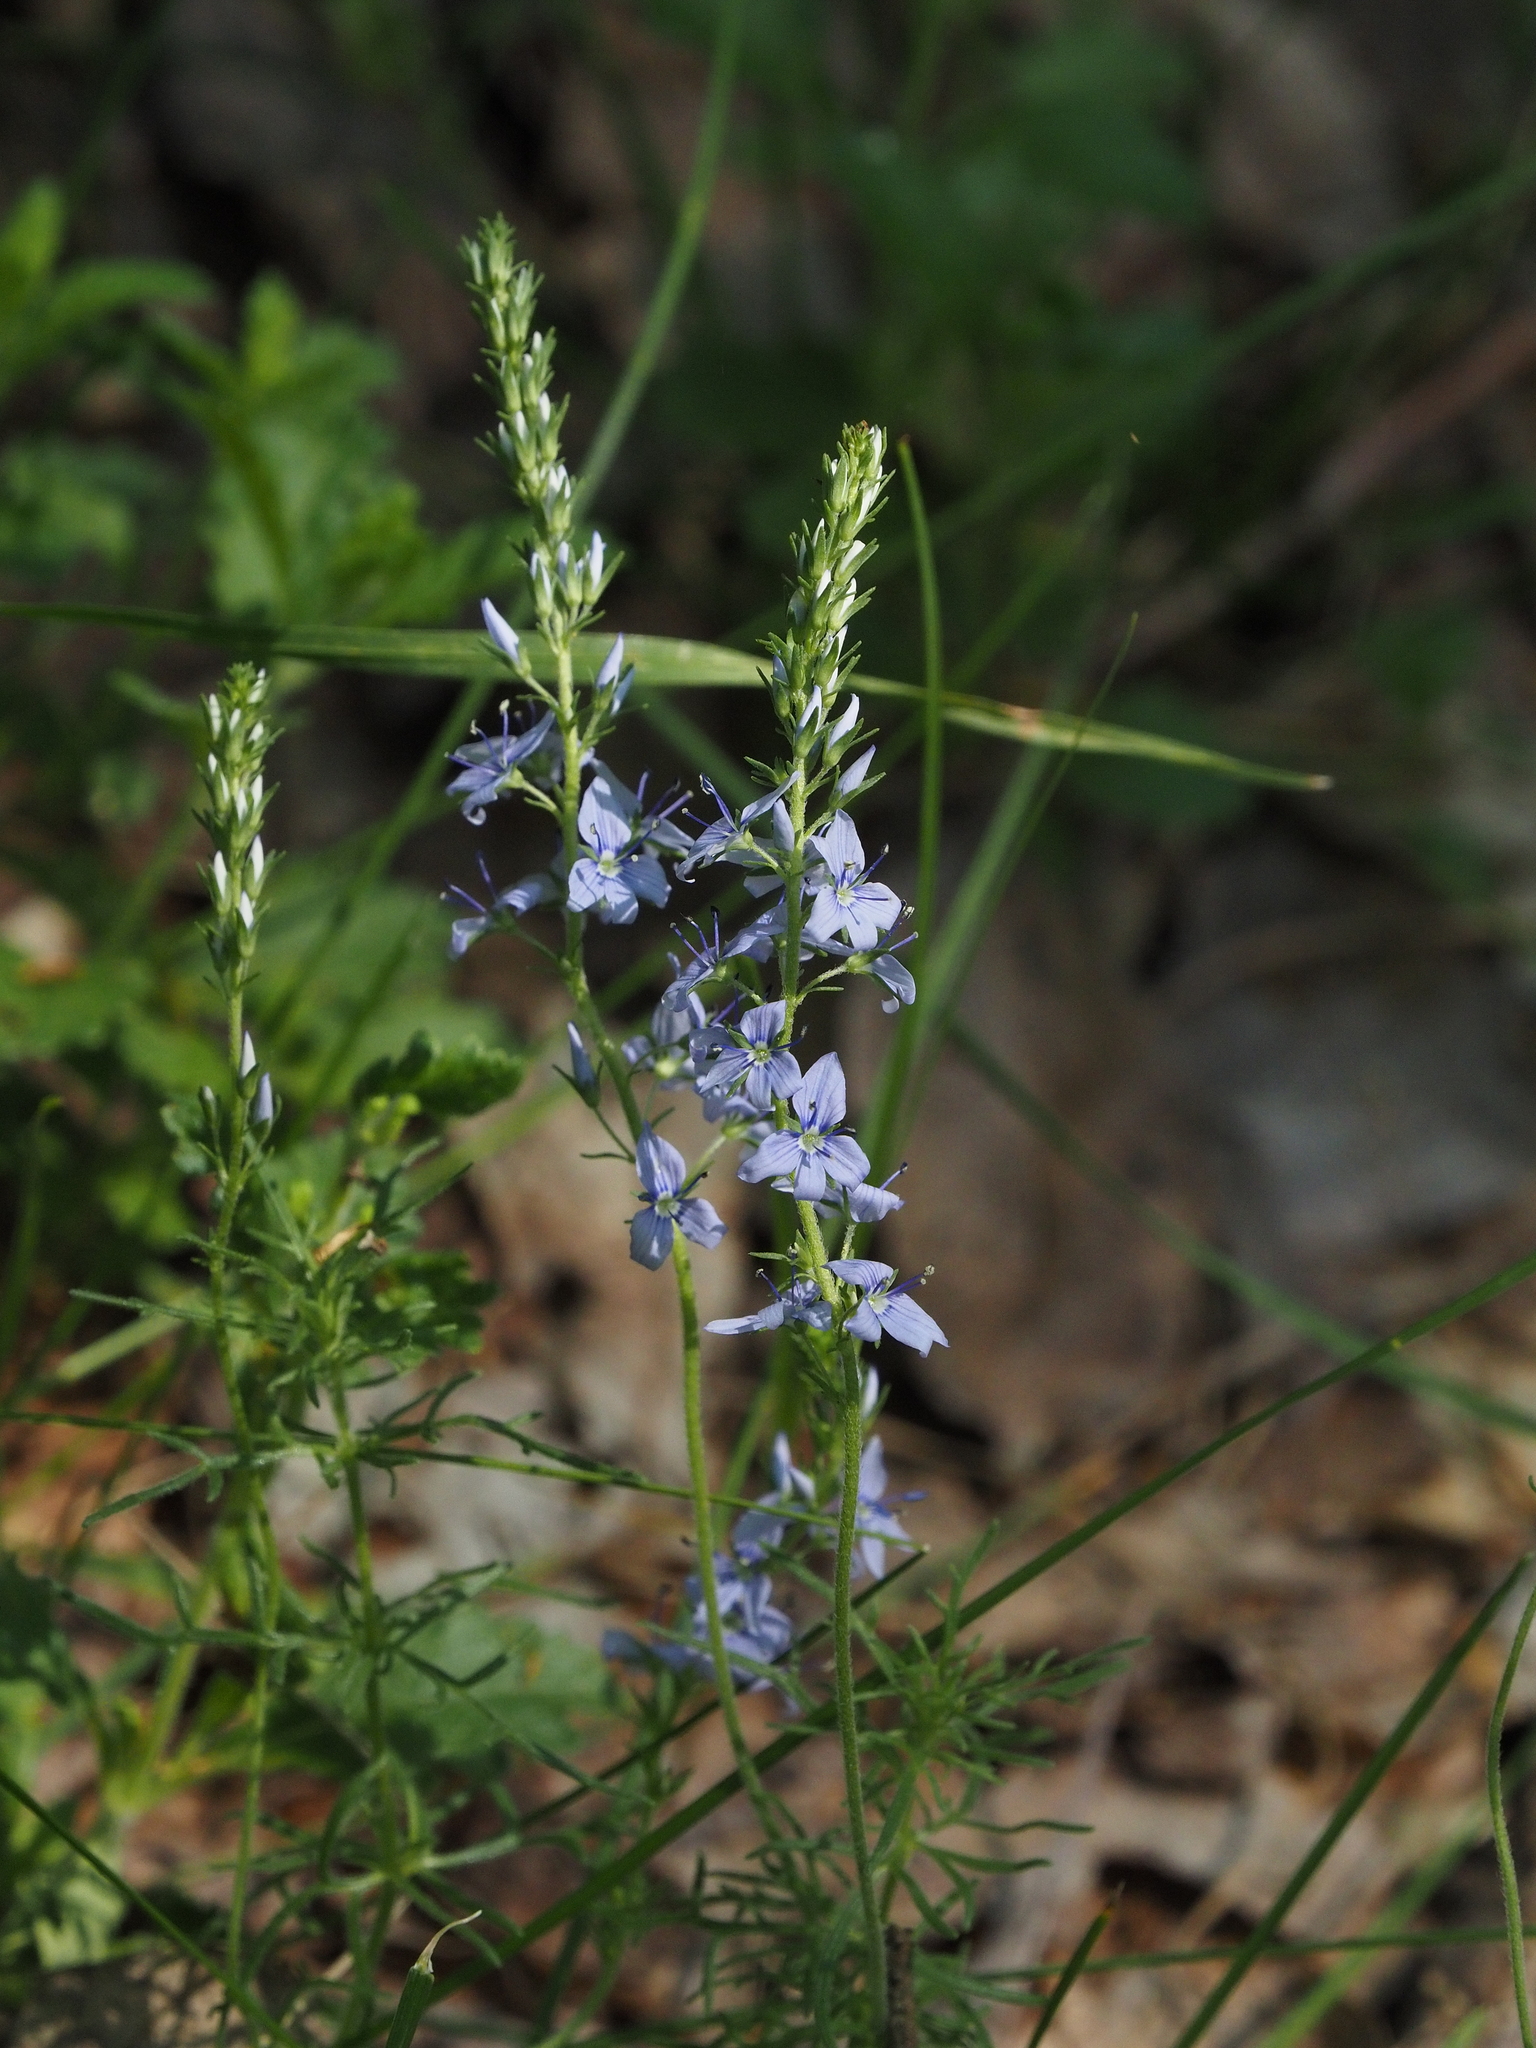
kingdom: Plantae
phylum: Tracheophyta
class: Magnoliopsida
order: Lamiales
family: Plantaginaceae
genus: Veronica
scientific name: Veronica austriaca
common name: Large speedwell
